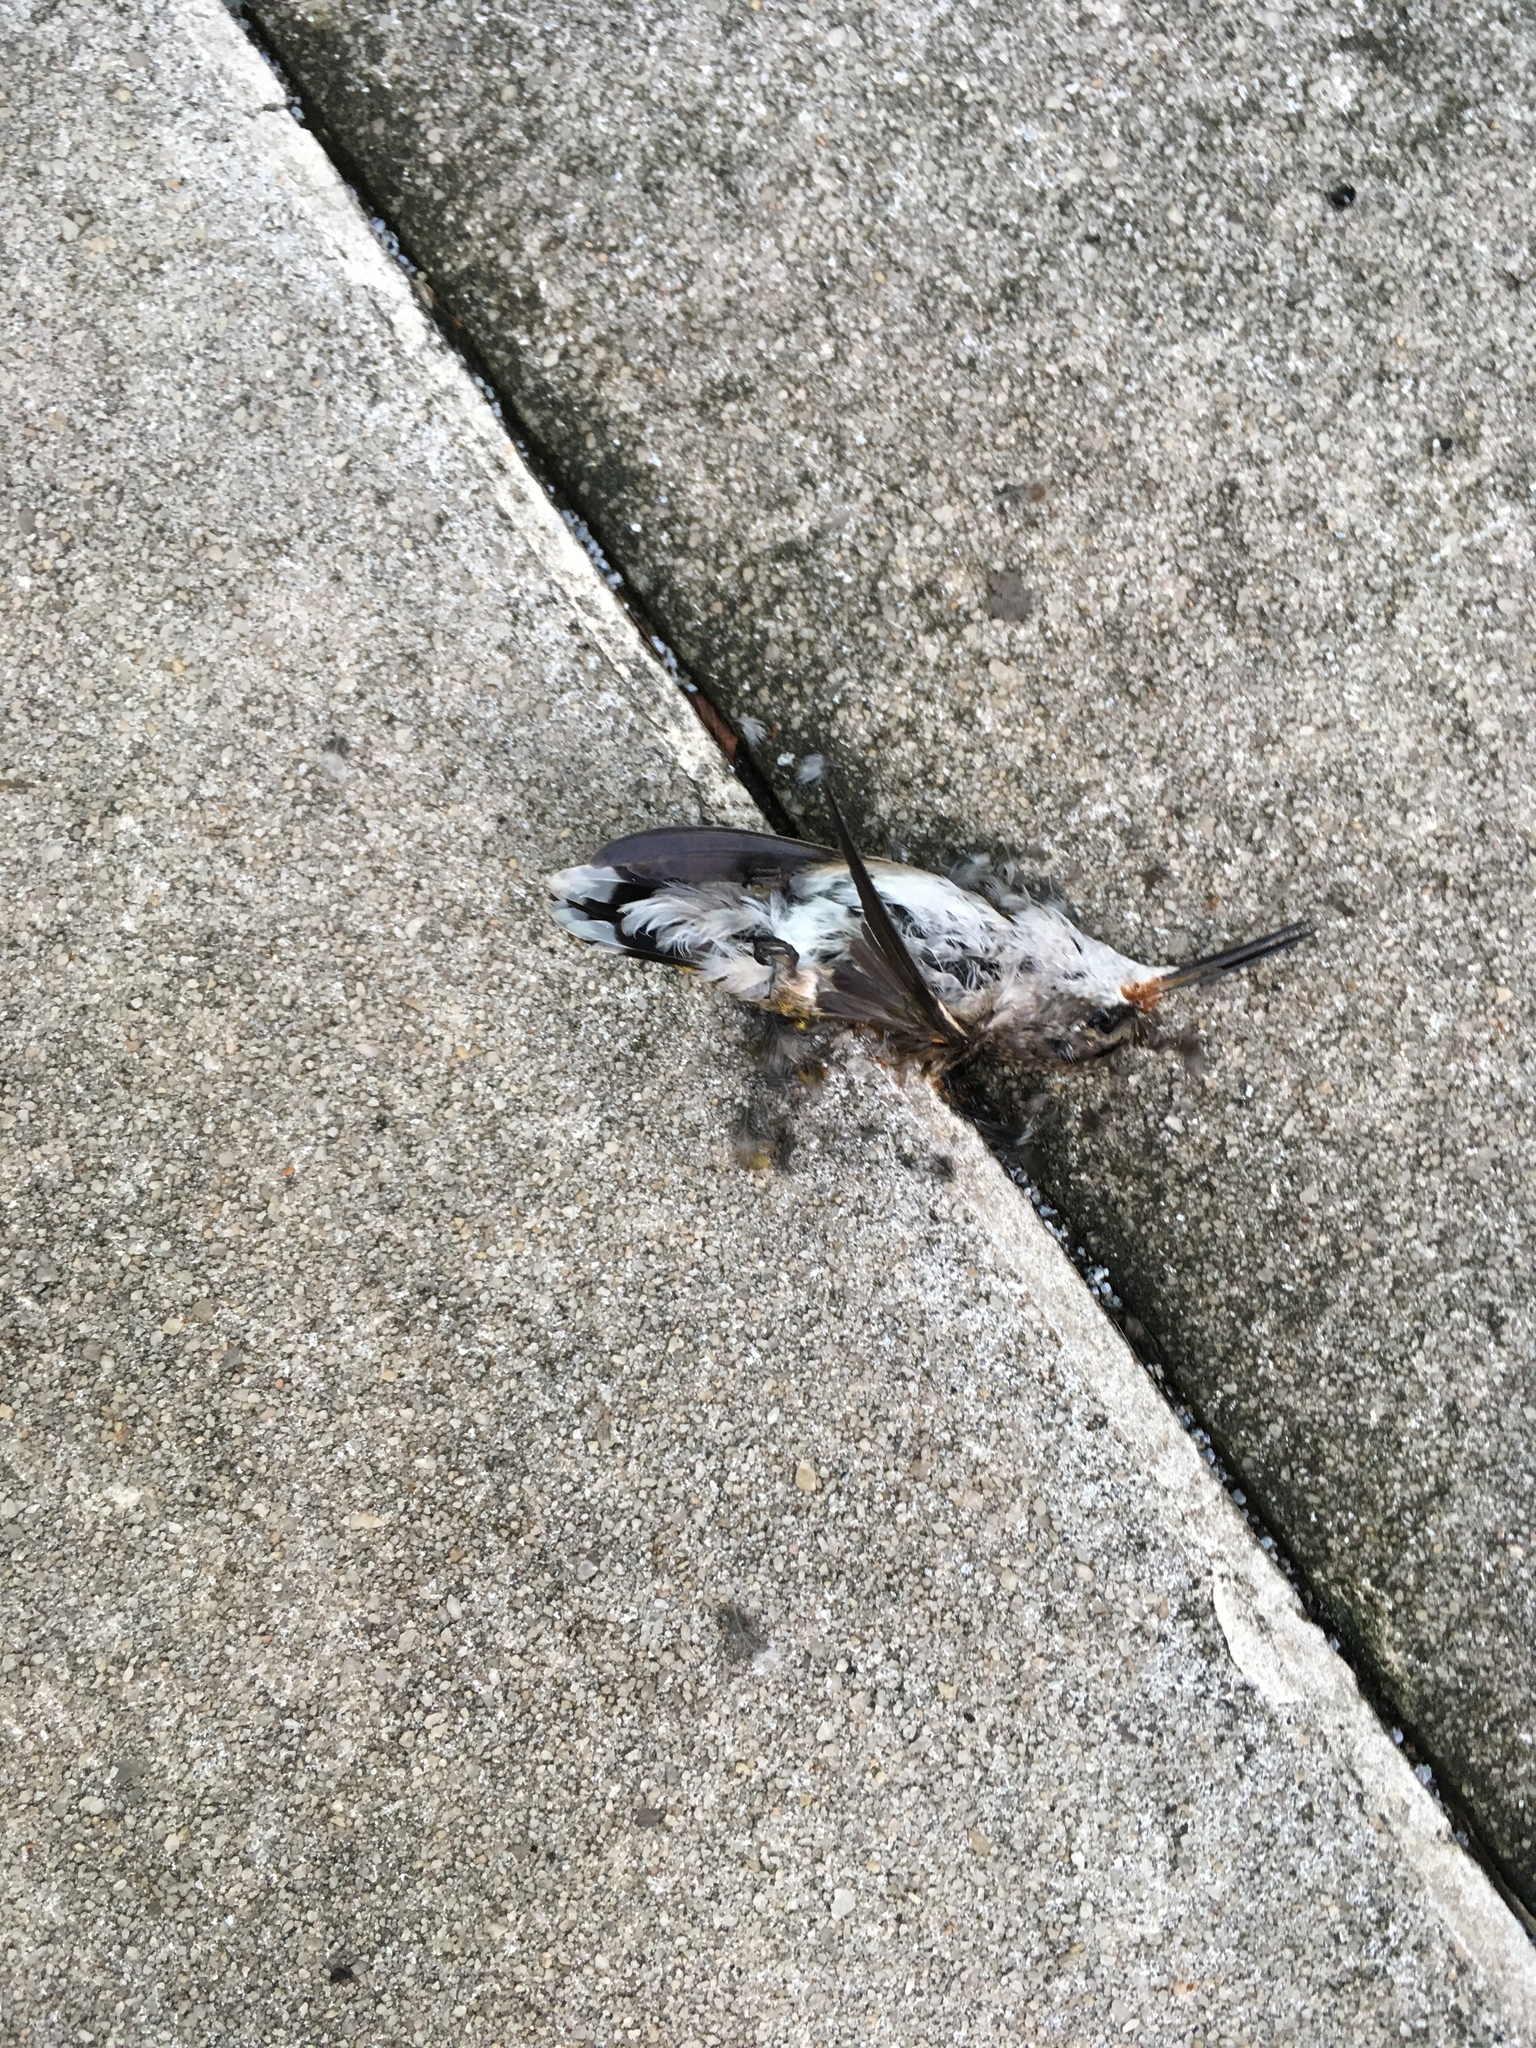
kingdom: Animalia
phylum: Chordata
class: Aves
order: Apodiformes
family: Trochilidae
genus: Archilochus
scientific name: Archilochus colubris
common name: Ruby-throated hummingbird
